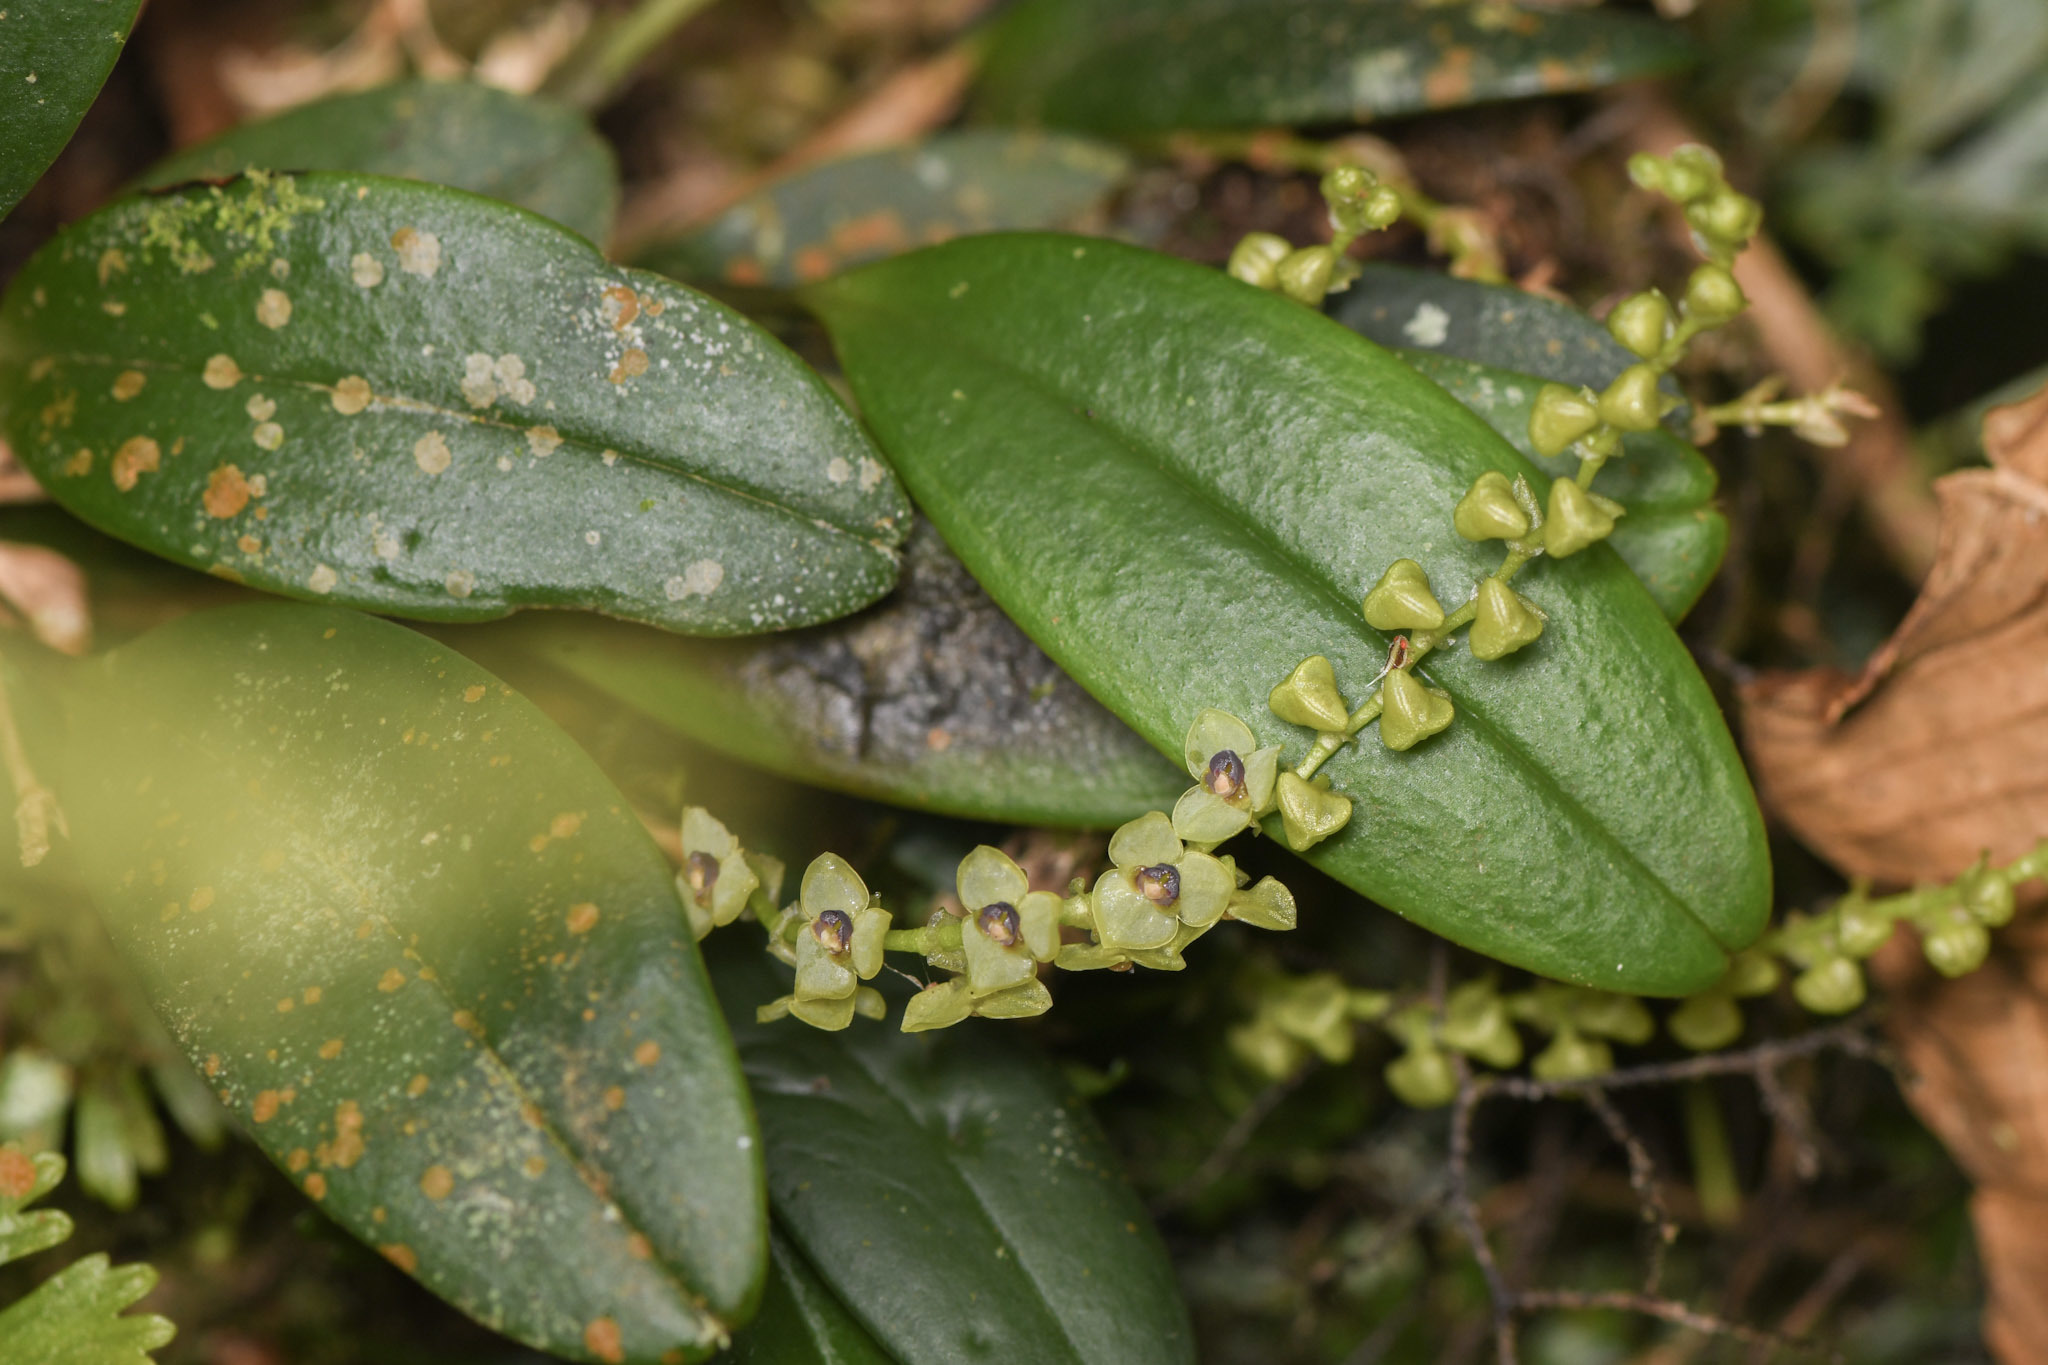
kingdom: Plantae
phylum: Tracheophyta
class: Liliopsida
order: Asparagales
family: Orchidaceae
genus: Stelis
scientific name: Stelis
